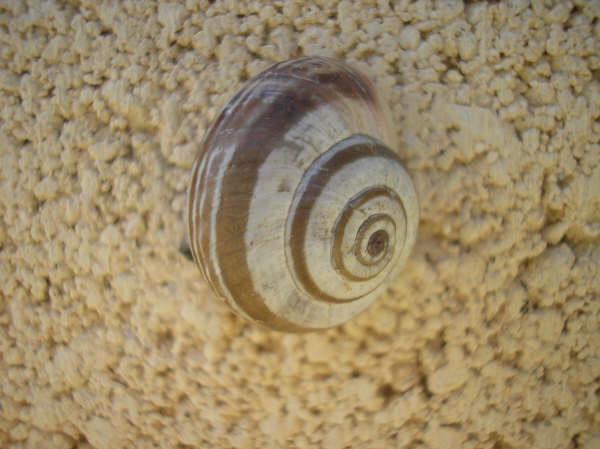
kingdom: Animalia
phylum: Mollusca
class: Gastropoda
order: Stylommatophora
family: Geomitridae
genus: Xerosecta
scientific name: Xerosecta arigonis
